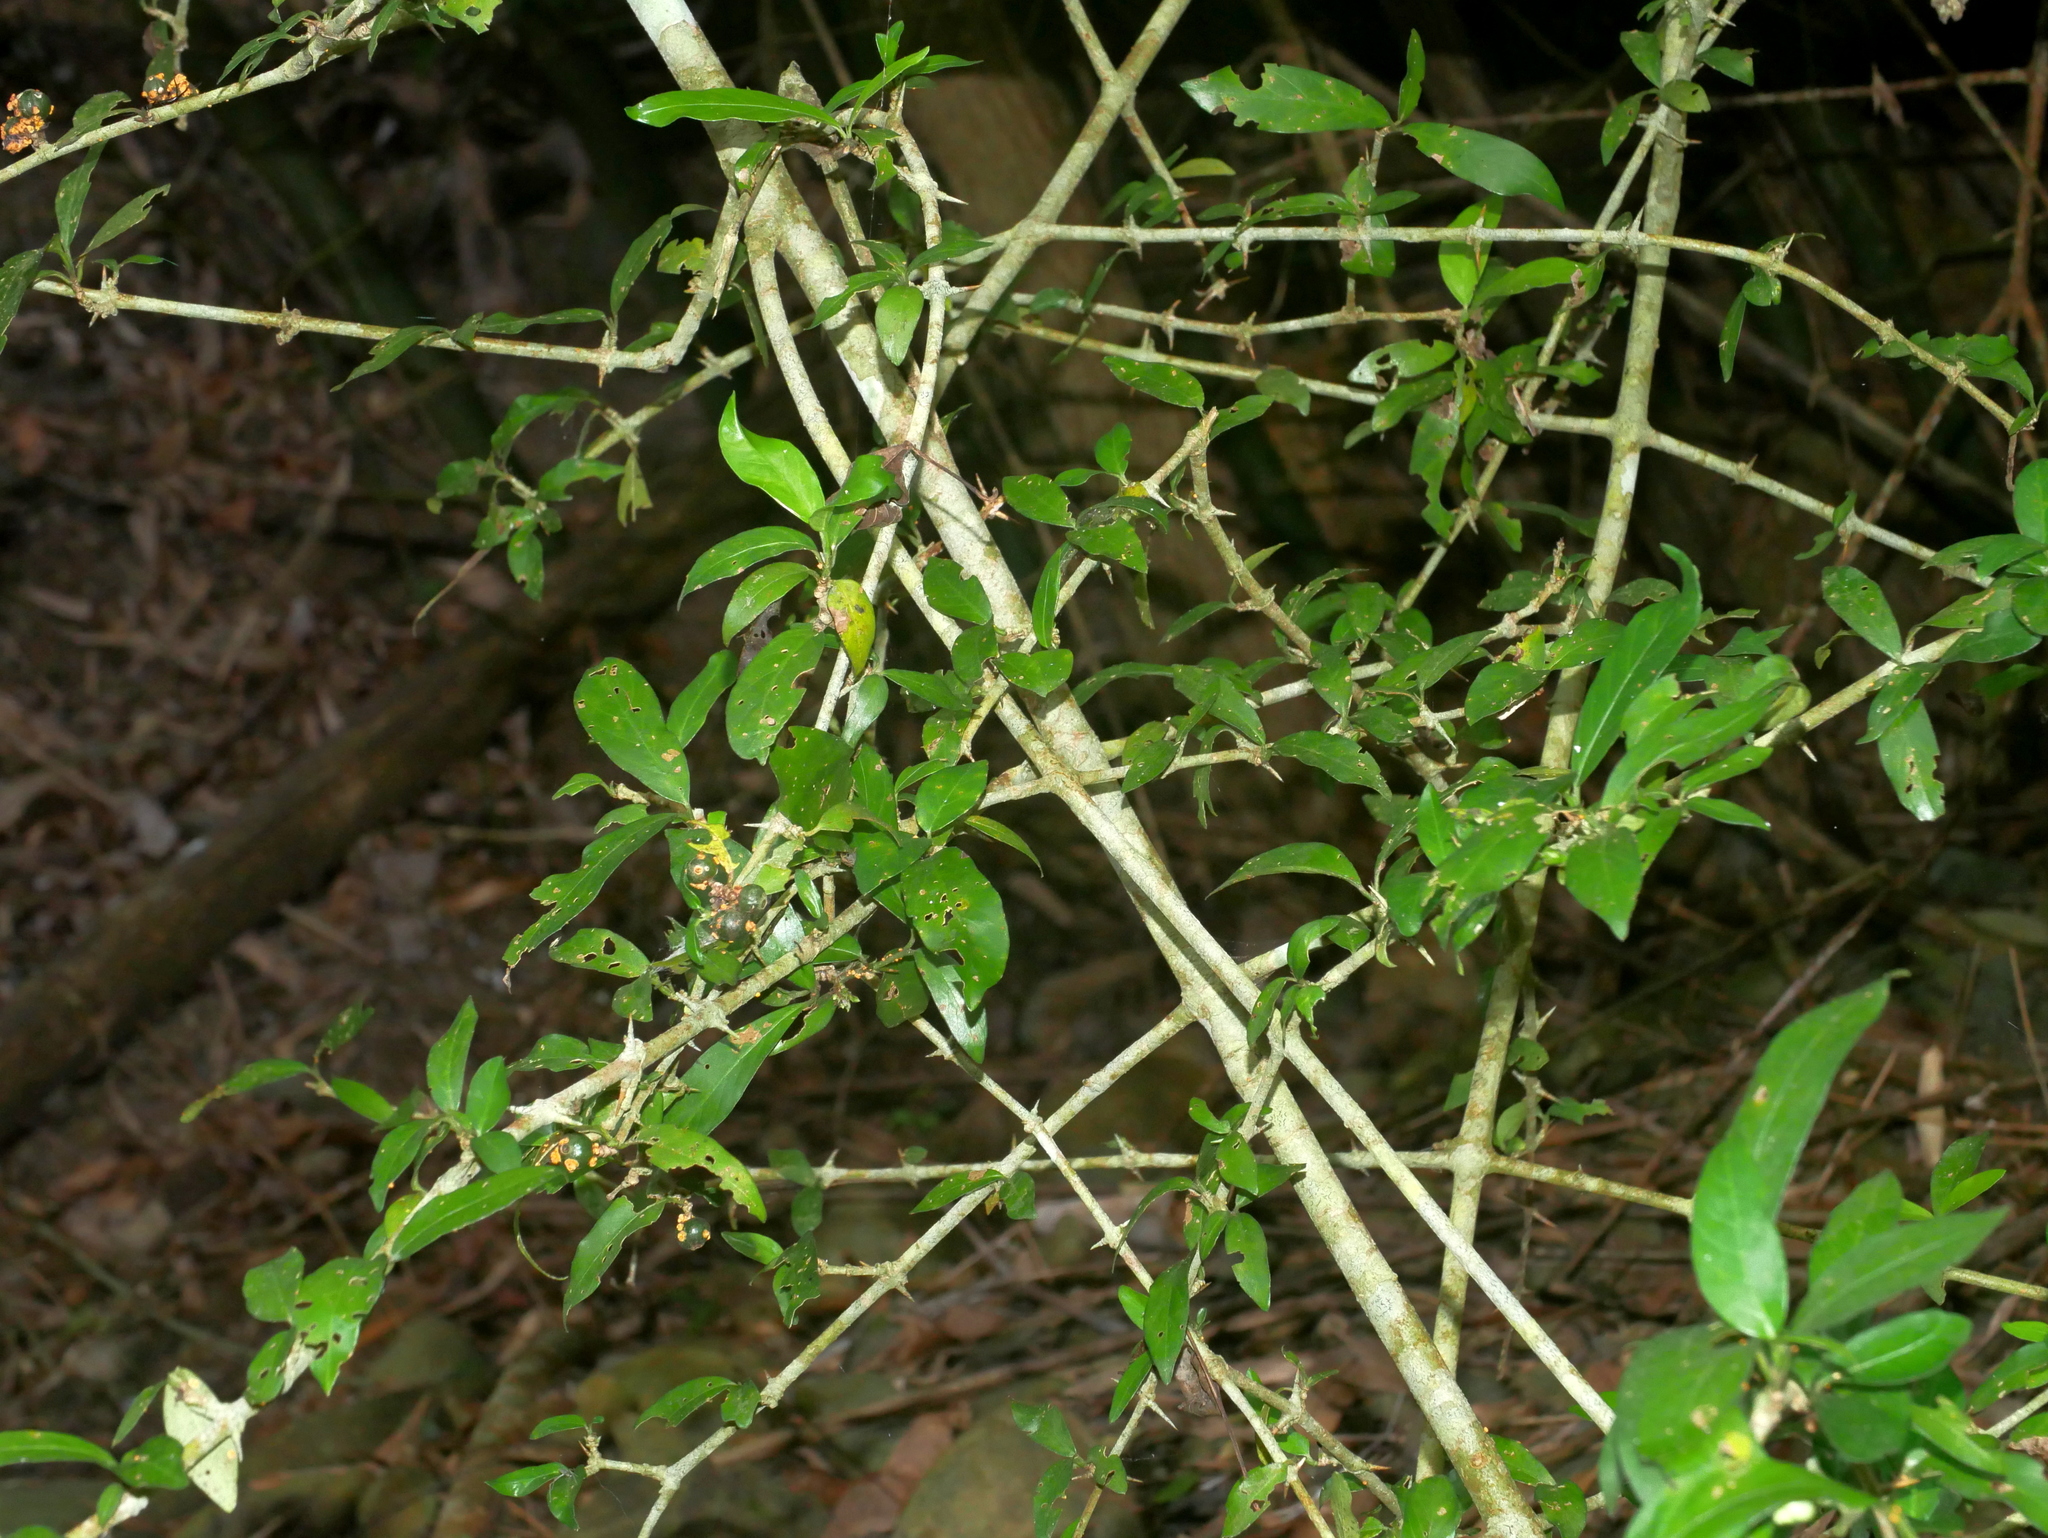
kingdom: Plantae
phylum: Tracheophyta
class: Magnoliopsida
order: Gentianales
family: Rubiaceae
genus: Benkara
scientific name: Benkara sinensis
